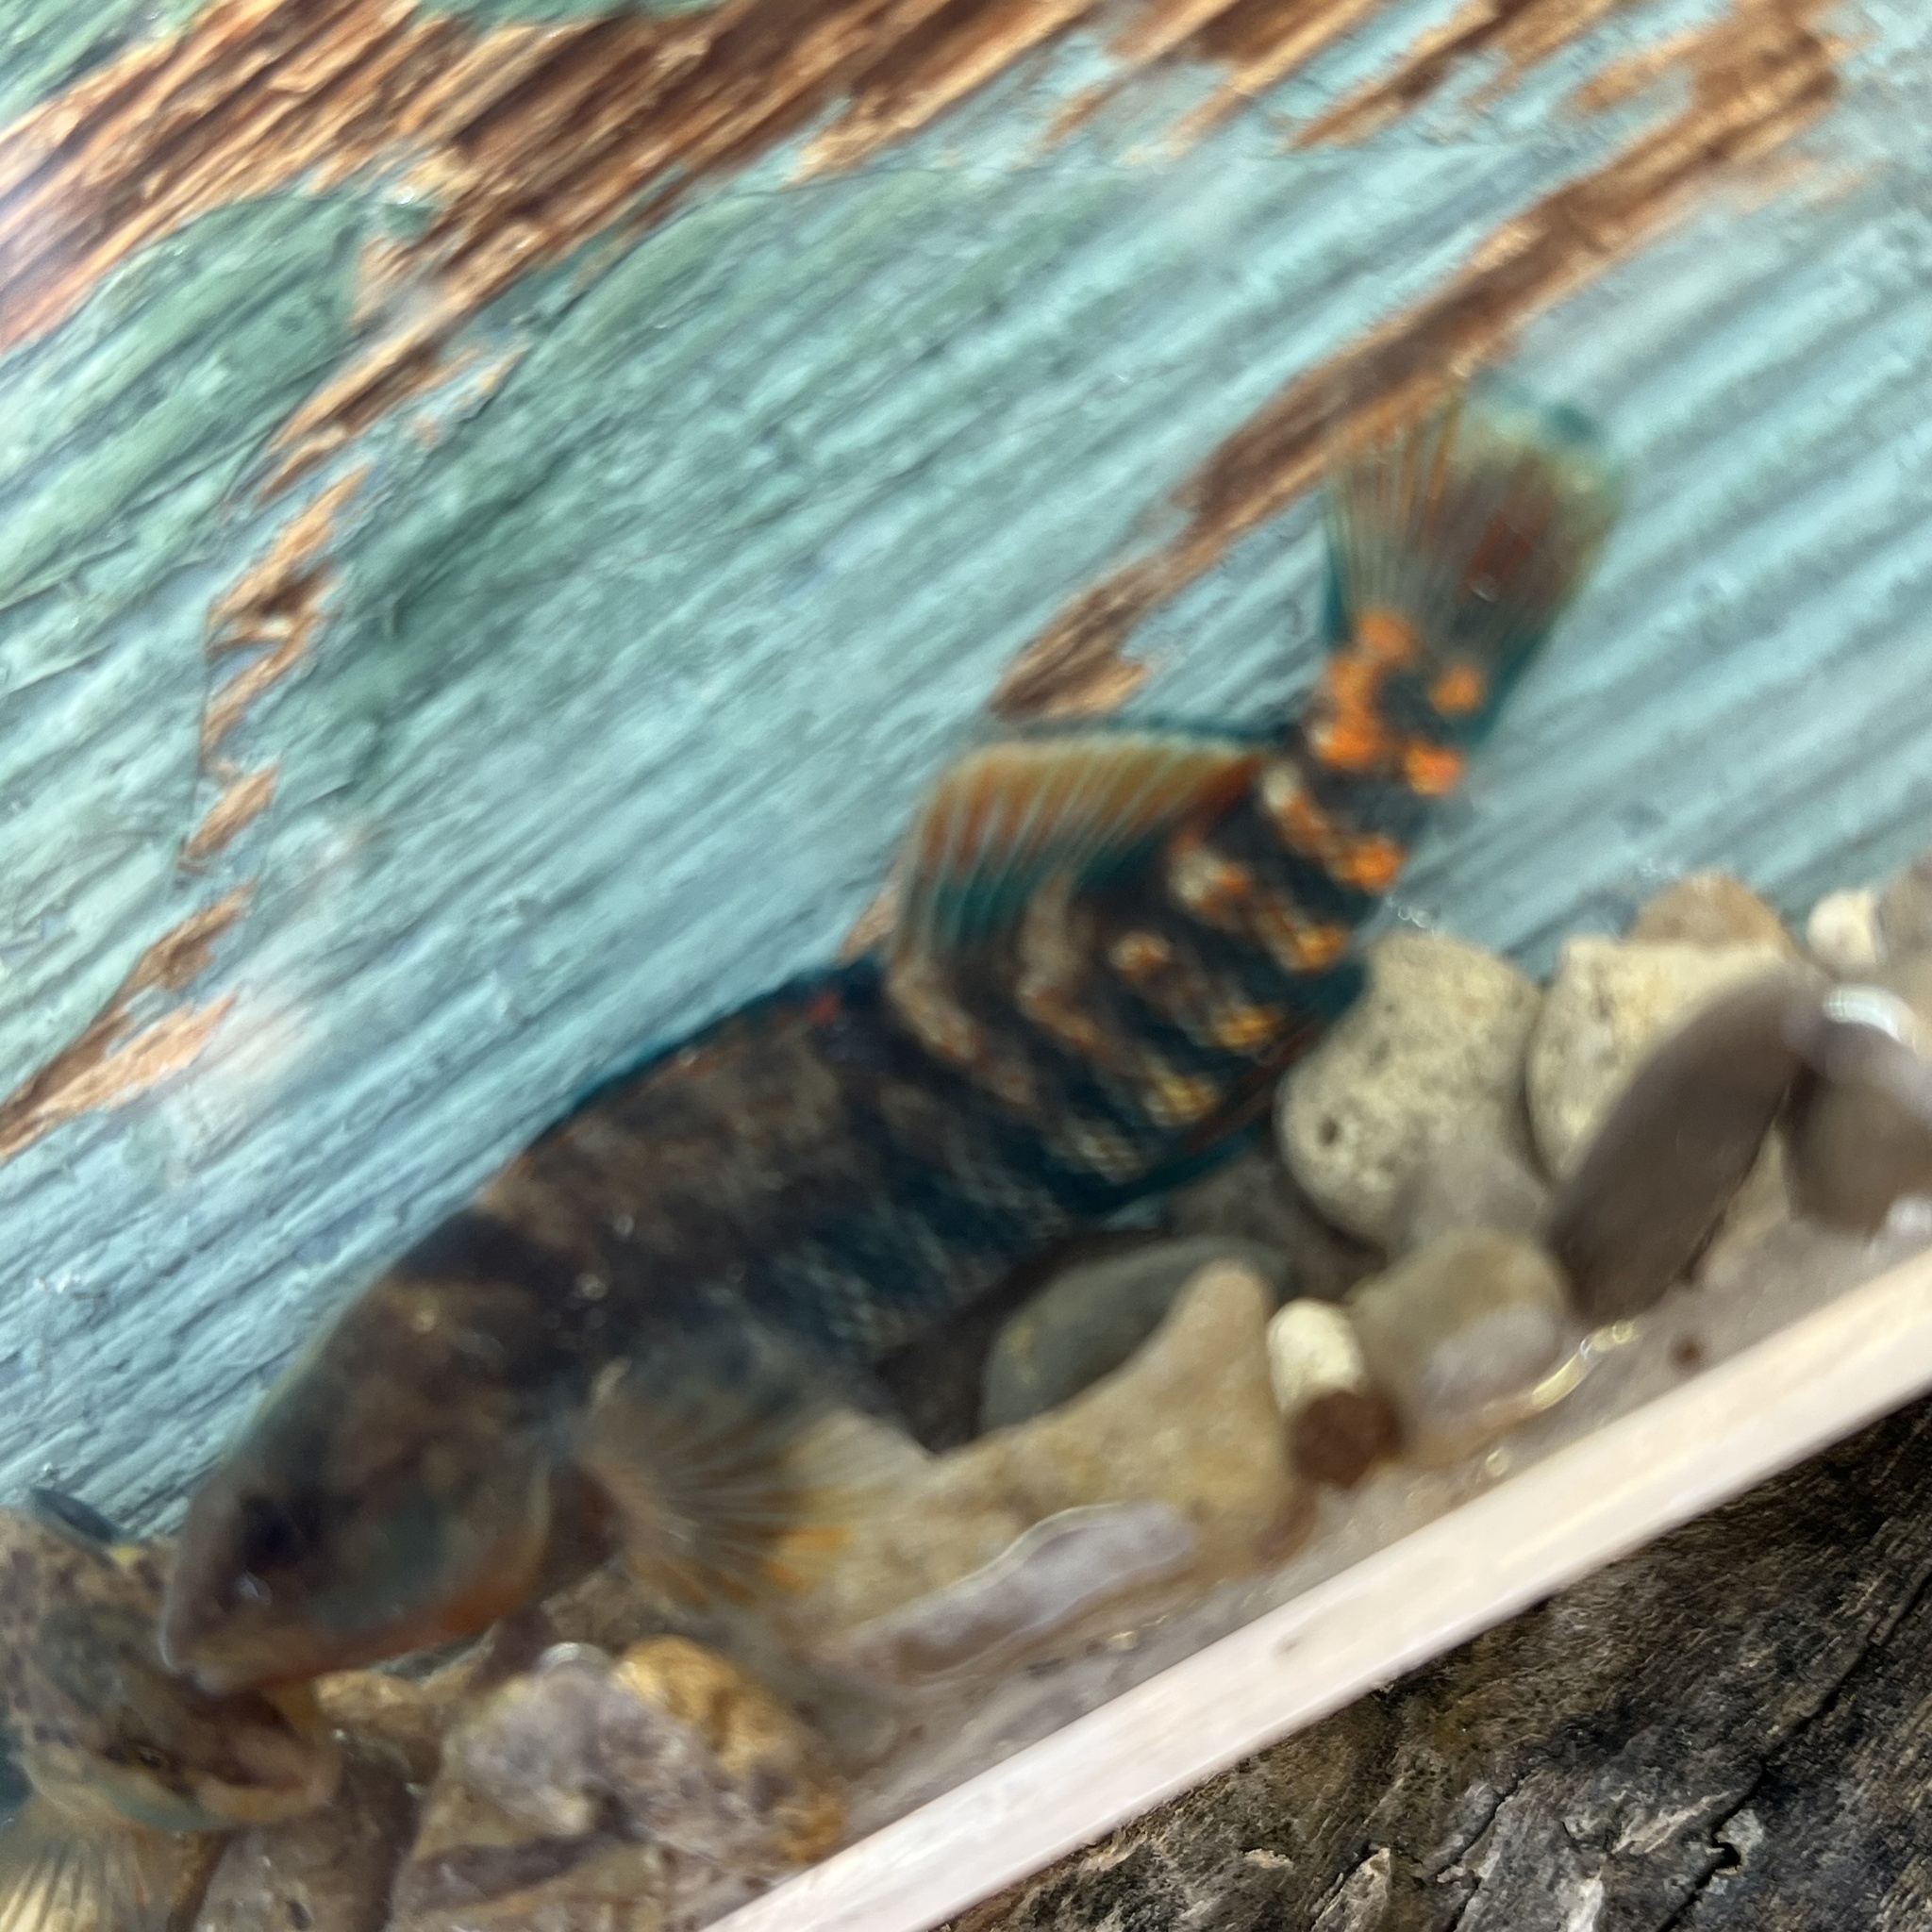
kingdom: Animalia
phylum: Chordata
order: Perciformes
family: Percidae
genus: Etheostoma
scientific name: Etheostoma caeruleum
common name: Rainbow darter
